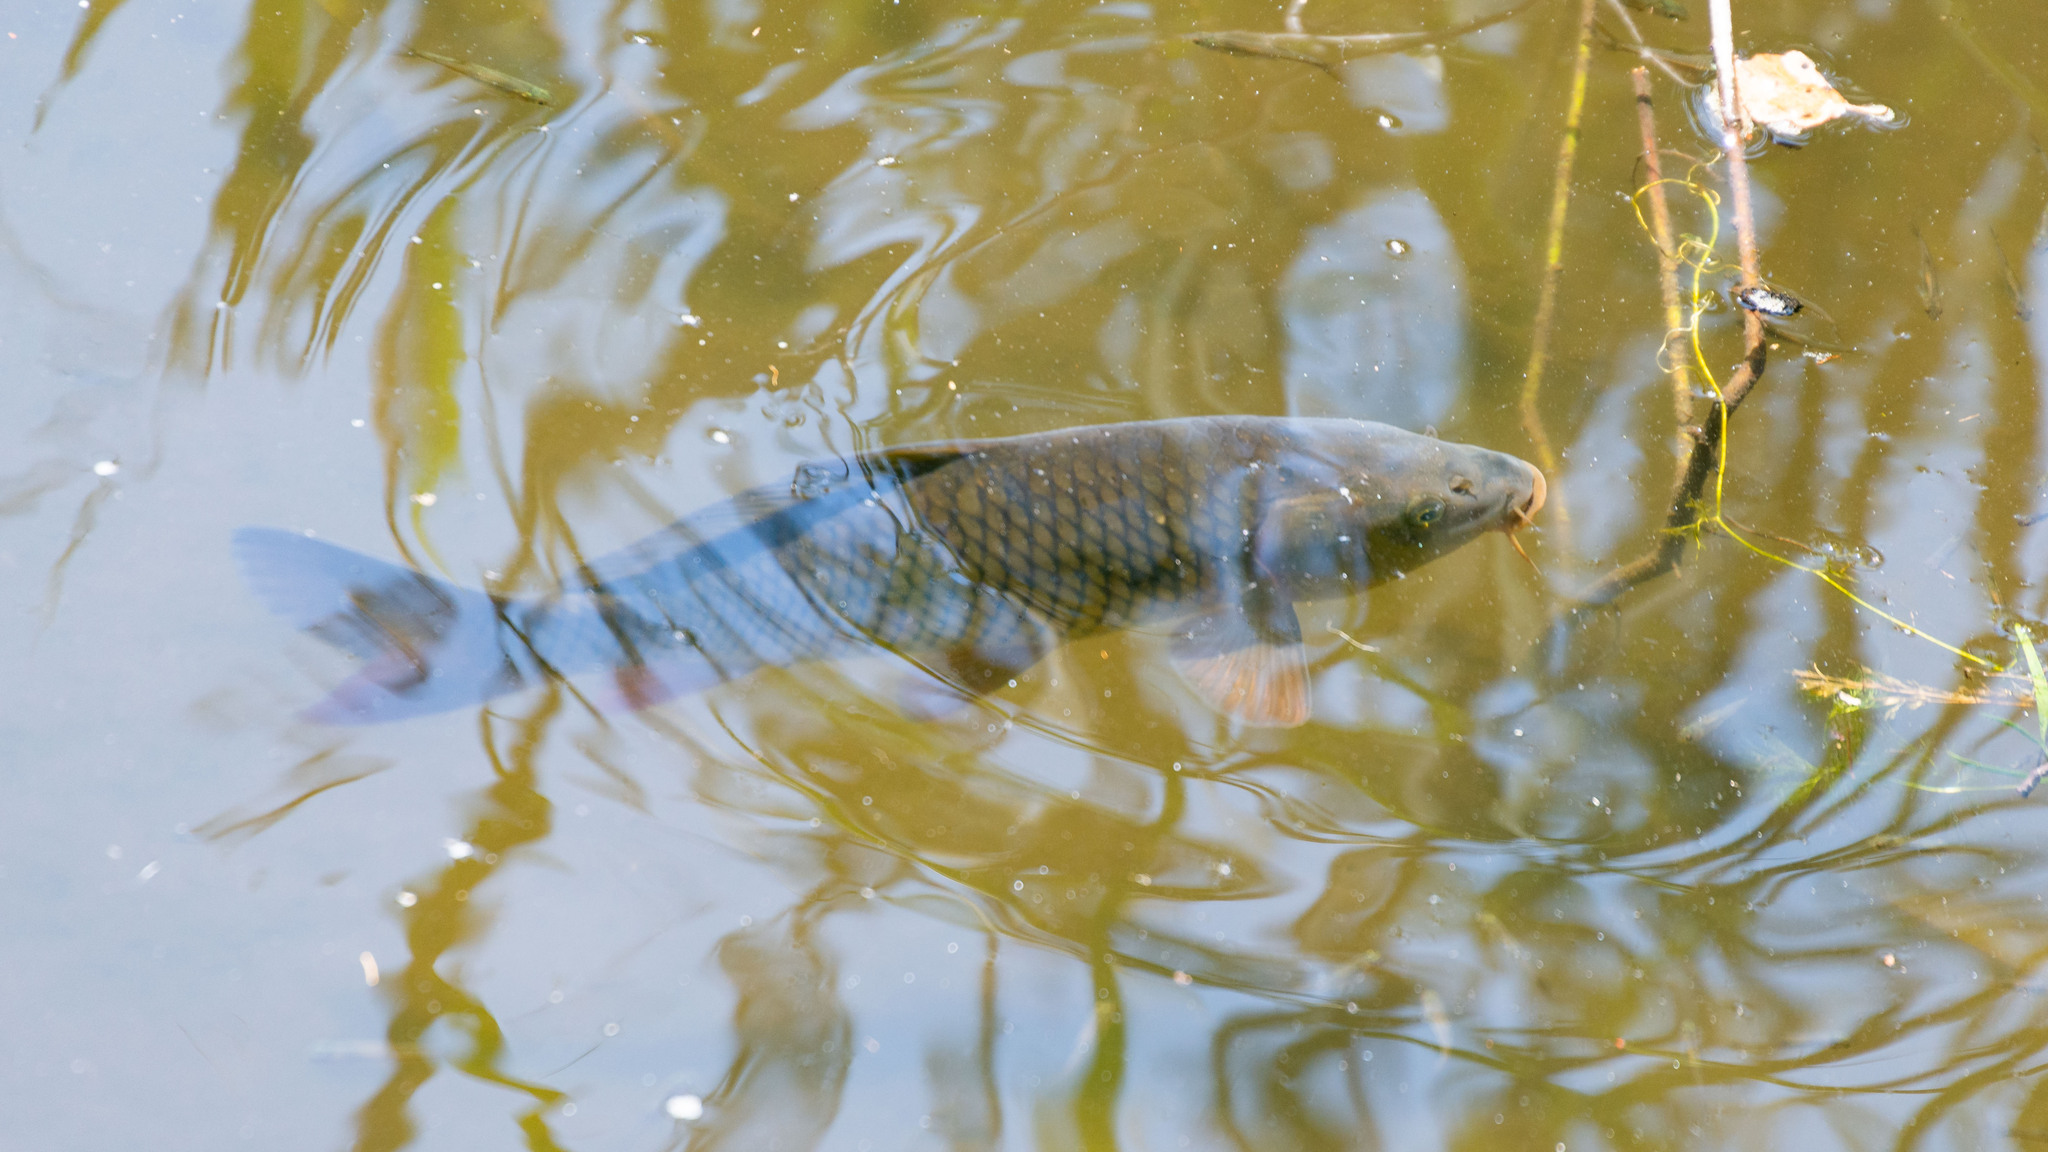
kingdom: Animalia
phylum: Chordata
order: Cypriniformes
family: Cyprinidae
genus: Cyprinus
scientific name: Cyprinus carpio
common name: Common carp
